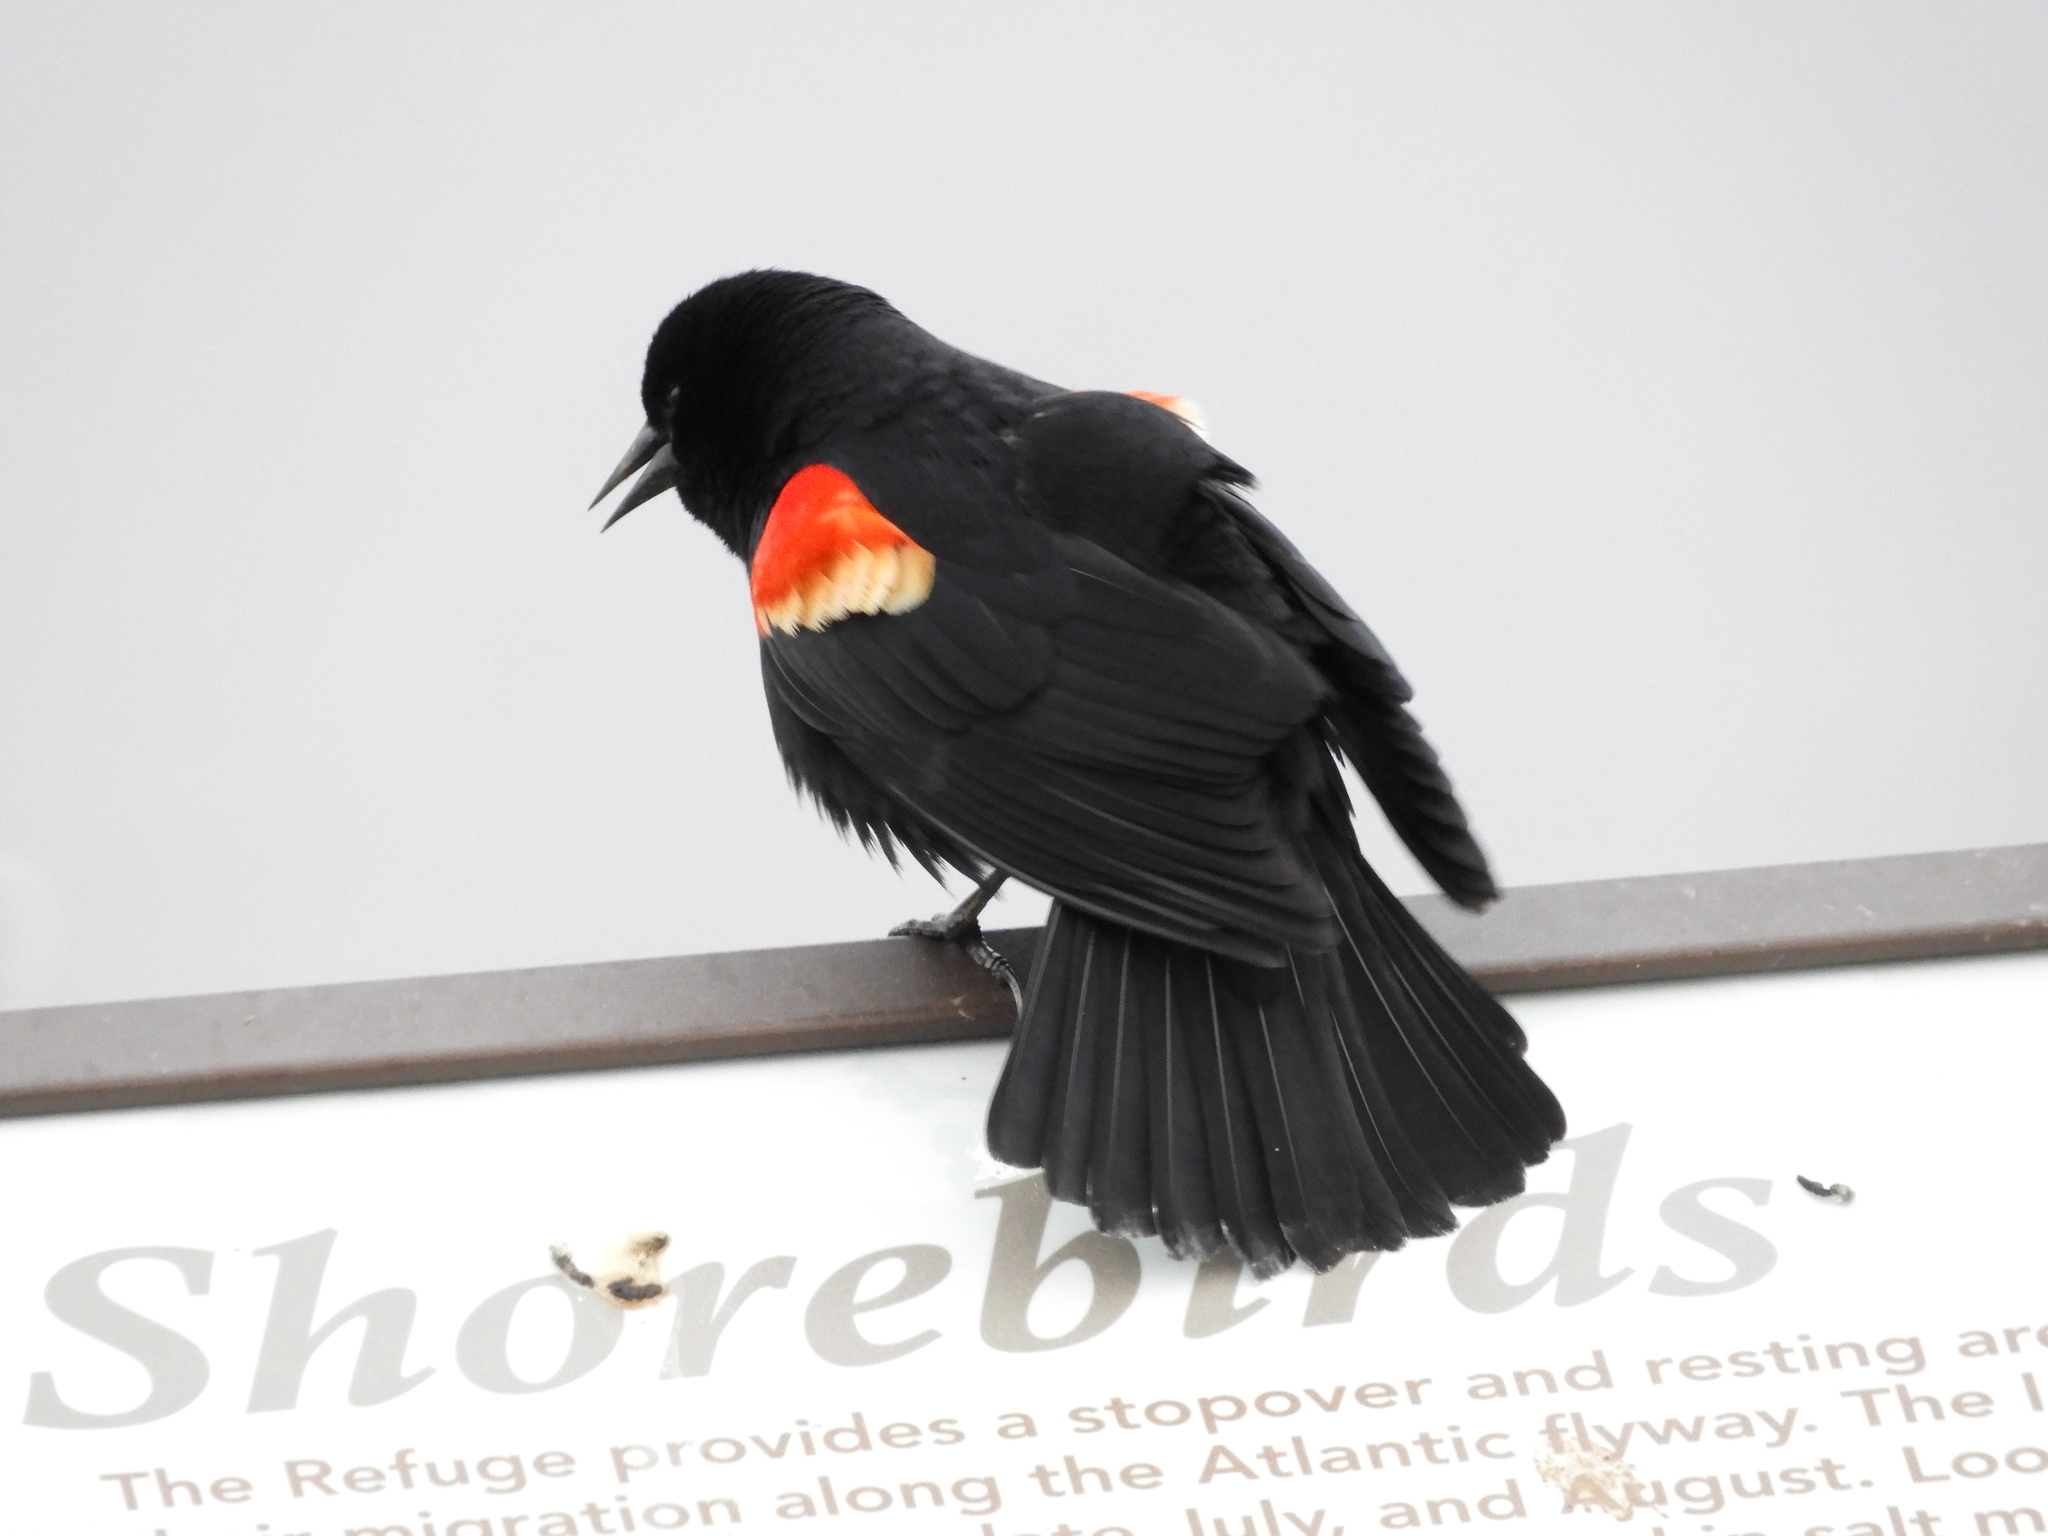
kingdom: Animalia
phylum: Chordata
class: Aves
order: Passeriformes
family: Icteridae
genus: Agelaius
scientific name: Agelaius phoeniceus
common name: Red-winged blackbird
